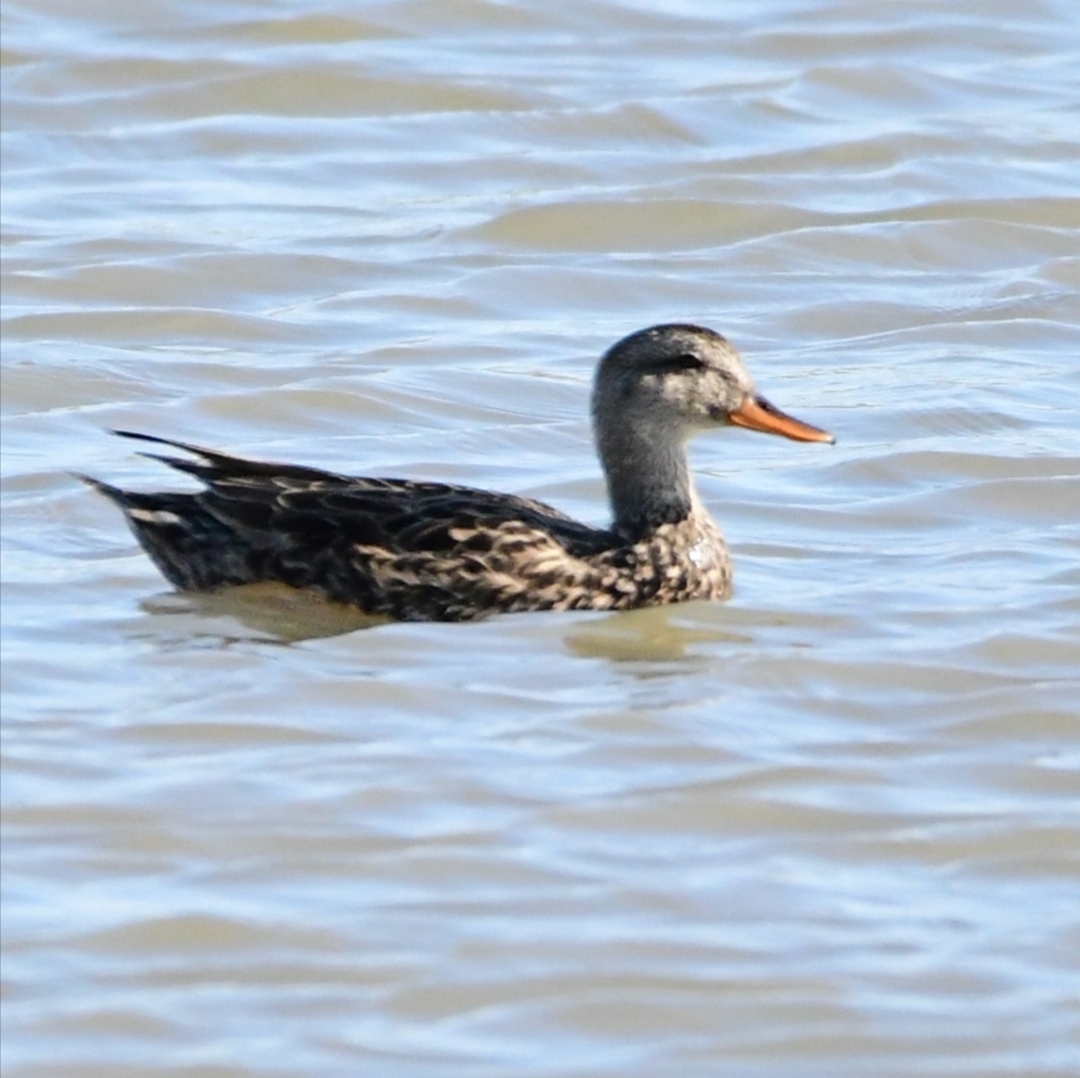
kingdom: Animalia
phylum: Chordata
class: Aves
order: Anseriformes
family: Anatidae
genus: Mareca
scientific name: Mareca strepera
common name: Gadwall
